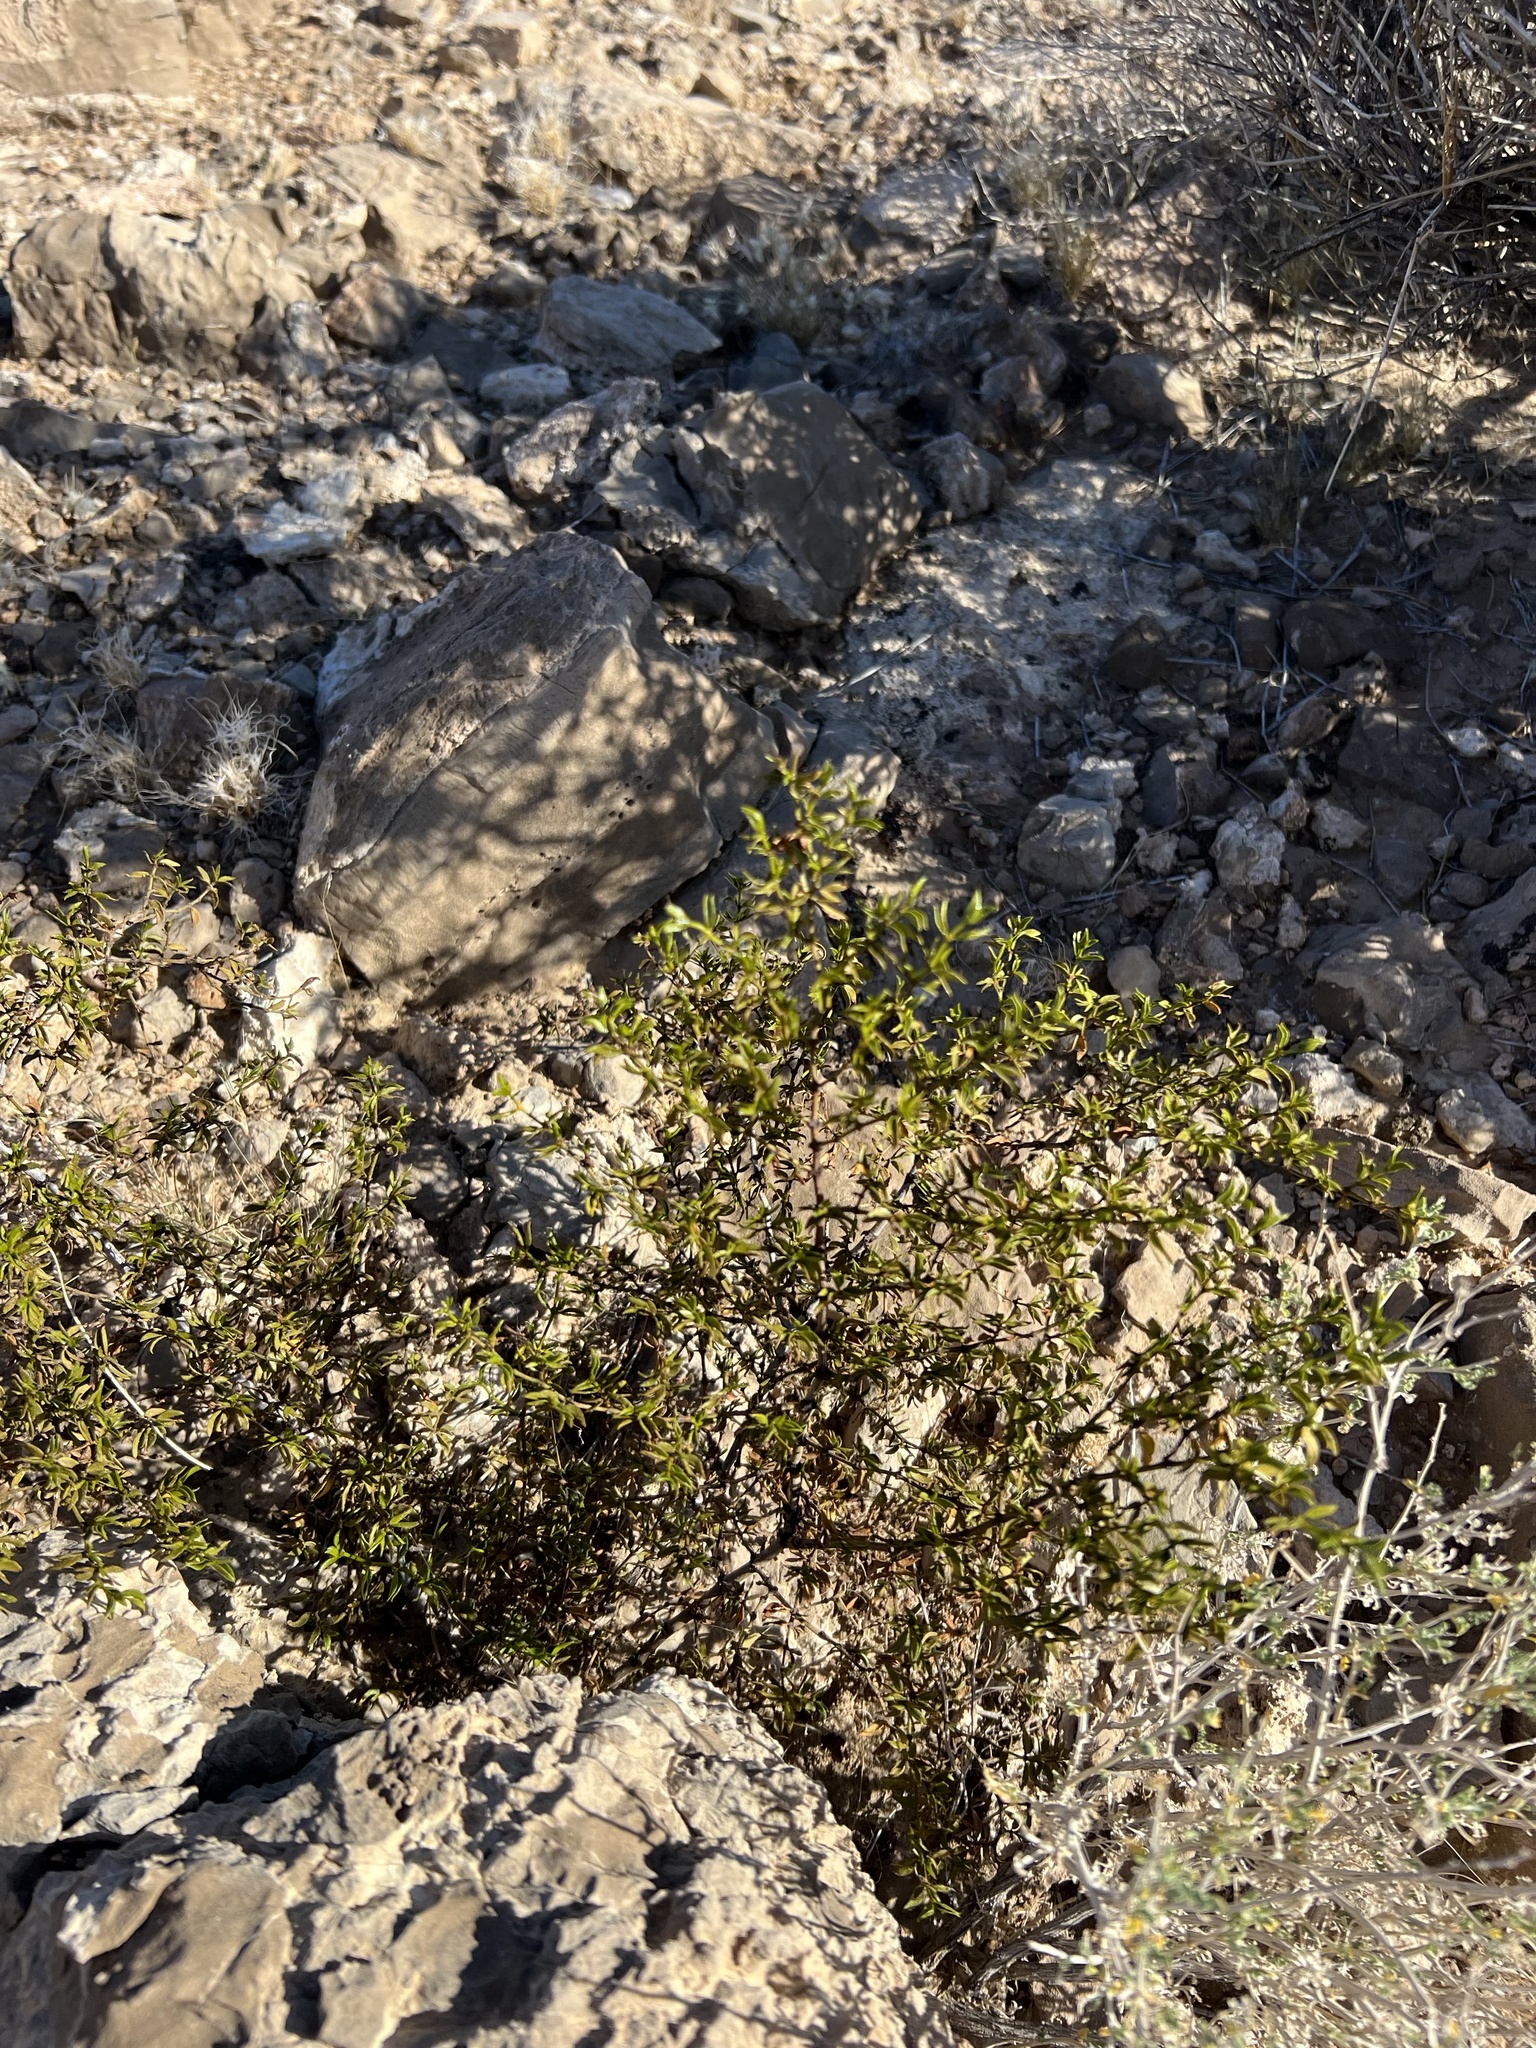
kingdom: Plantae
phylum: Tracheophyta
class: Magnoliopsida
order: Zygophyllales
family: Zygophyllaceae
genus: Larrea
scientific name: Larrea tridentata
